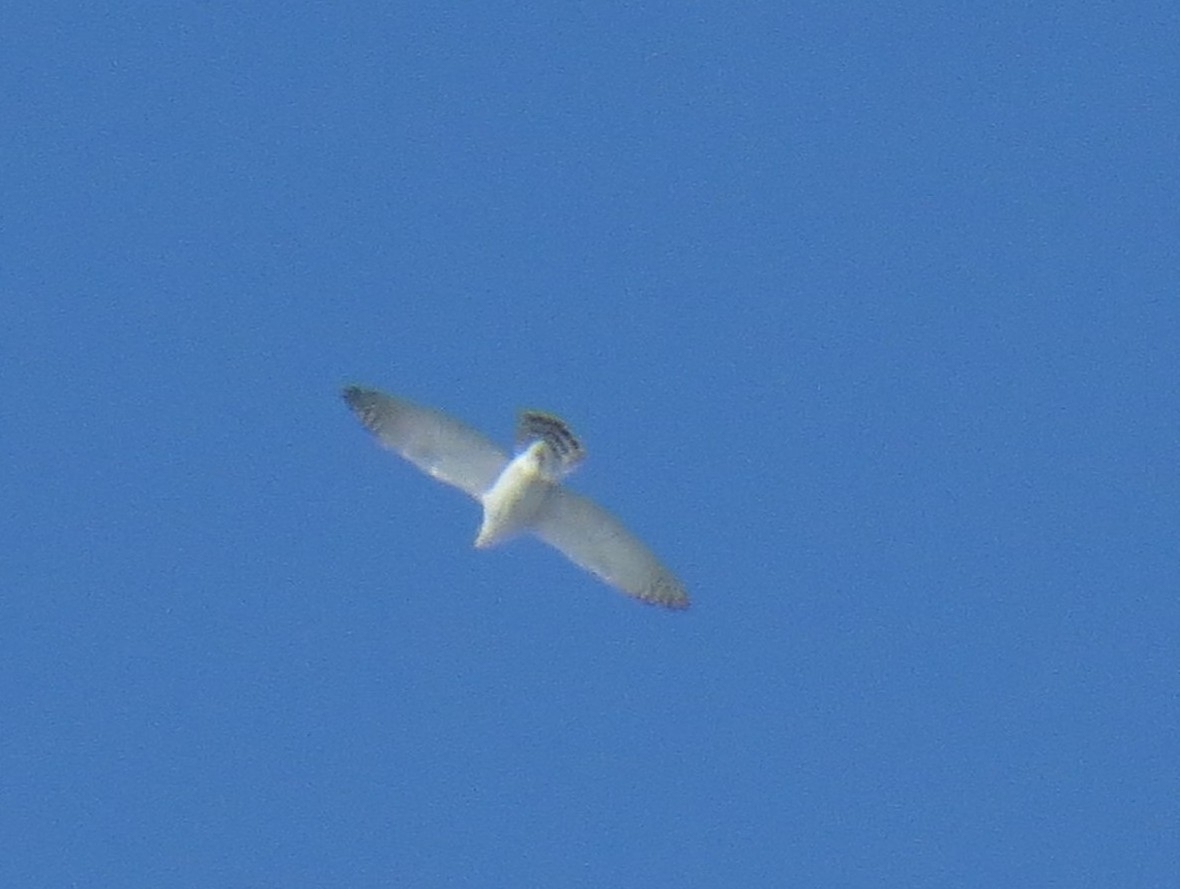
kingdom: Animalia
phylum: Chordata
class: Aves
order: Accipitriformes
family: Accipitridae
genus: Accipiter
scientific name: Accipiter gentilis
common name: Northern goshawk
